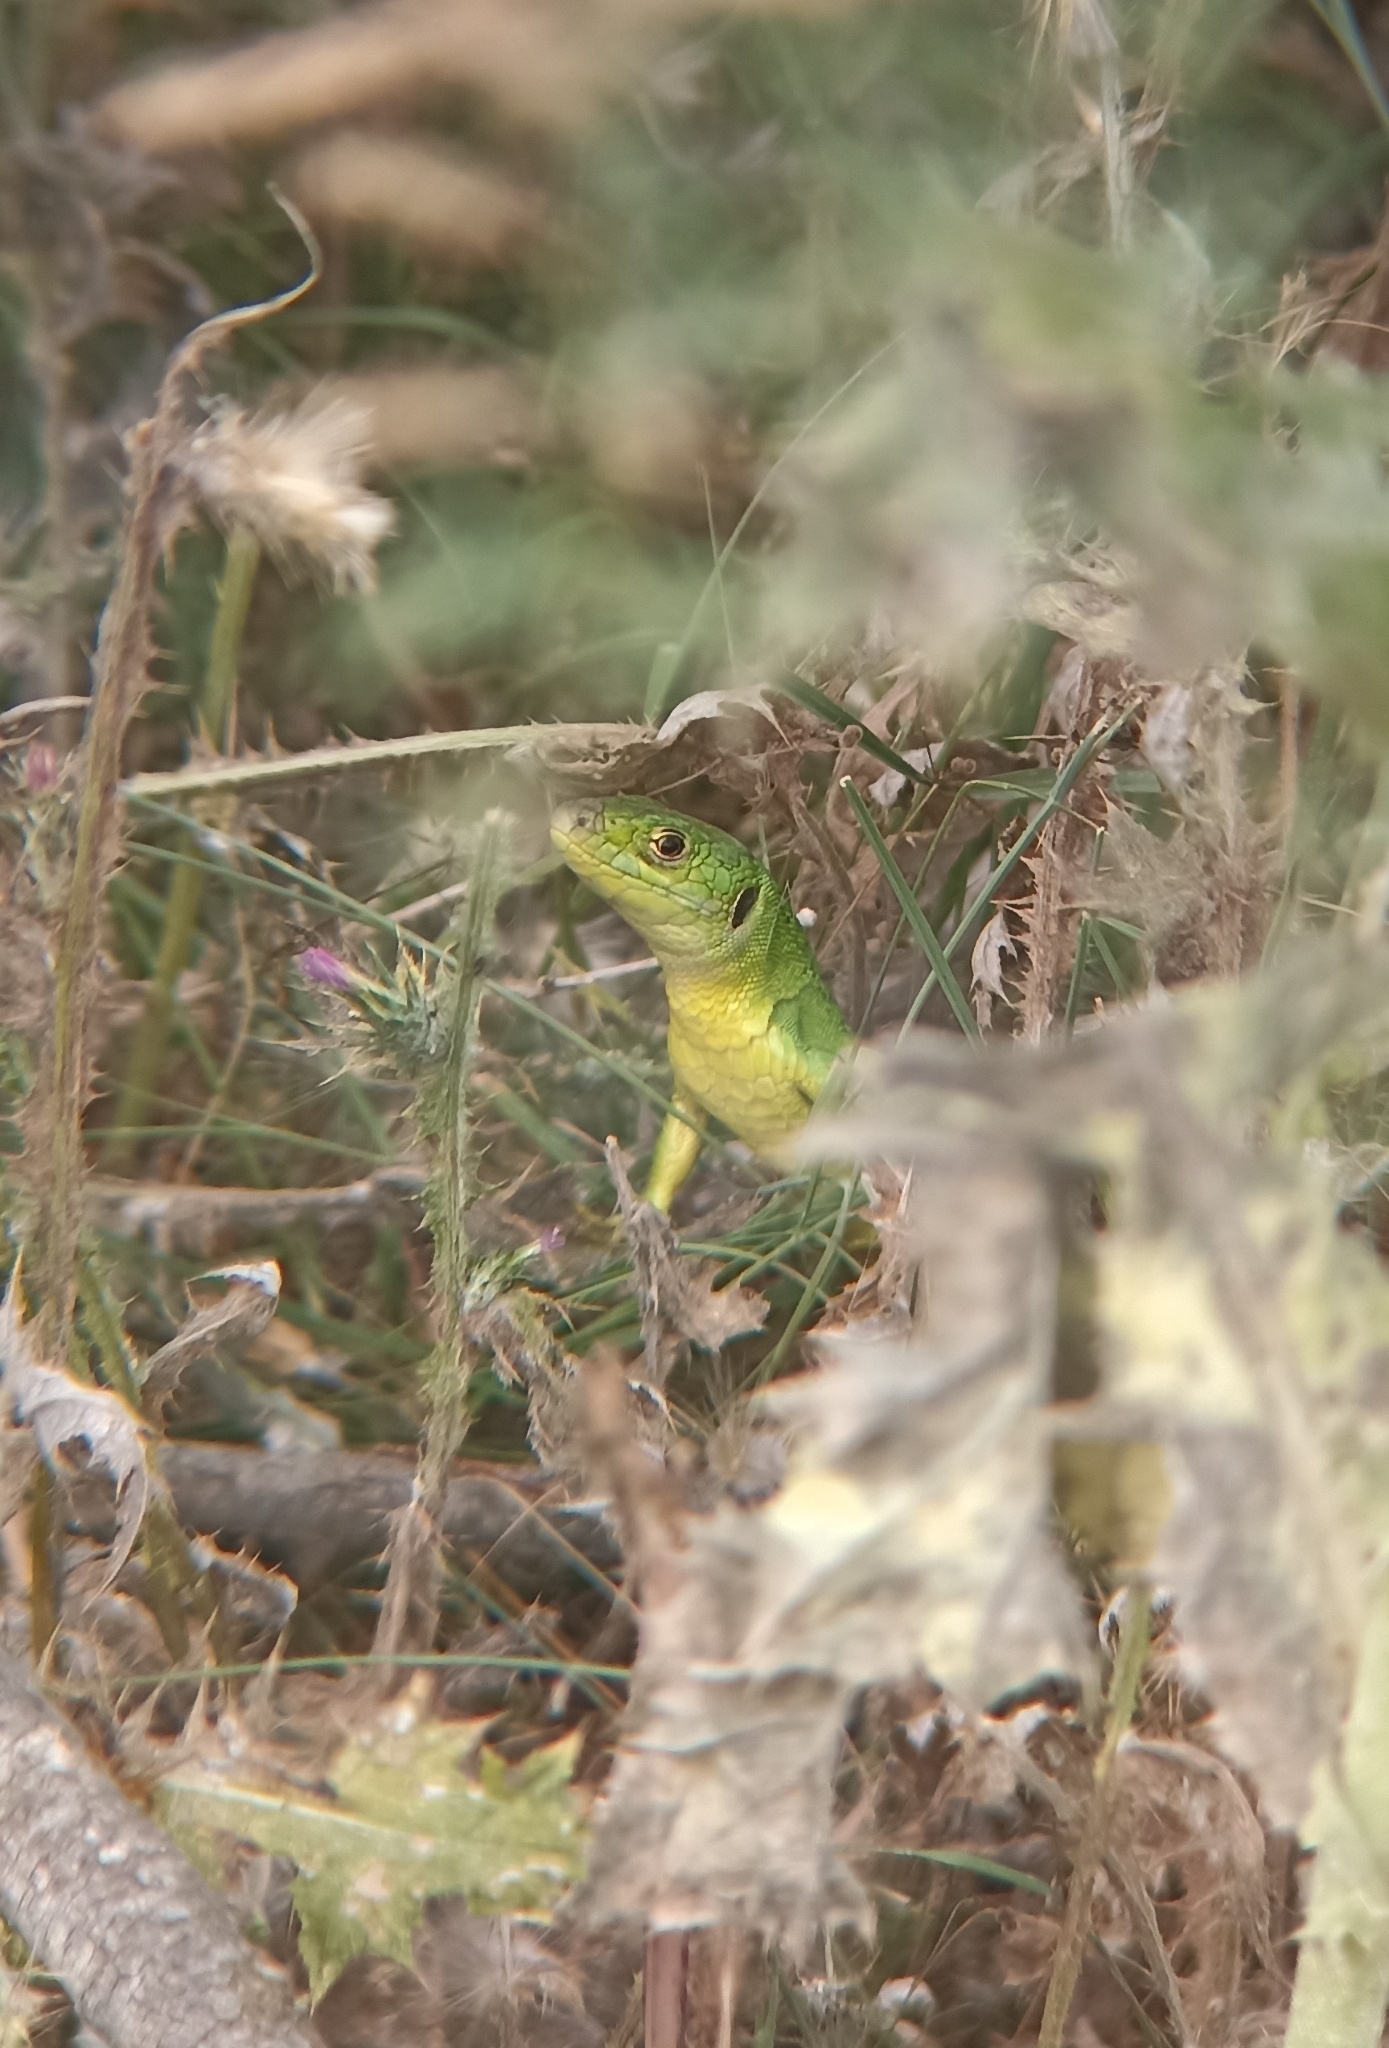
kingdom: Animalia
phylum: Chordata
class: Squamata
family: Lacertidae
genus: Lacerta
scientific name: Lacerta bilineata
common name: Western green lizard
